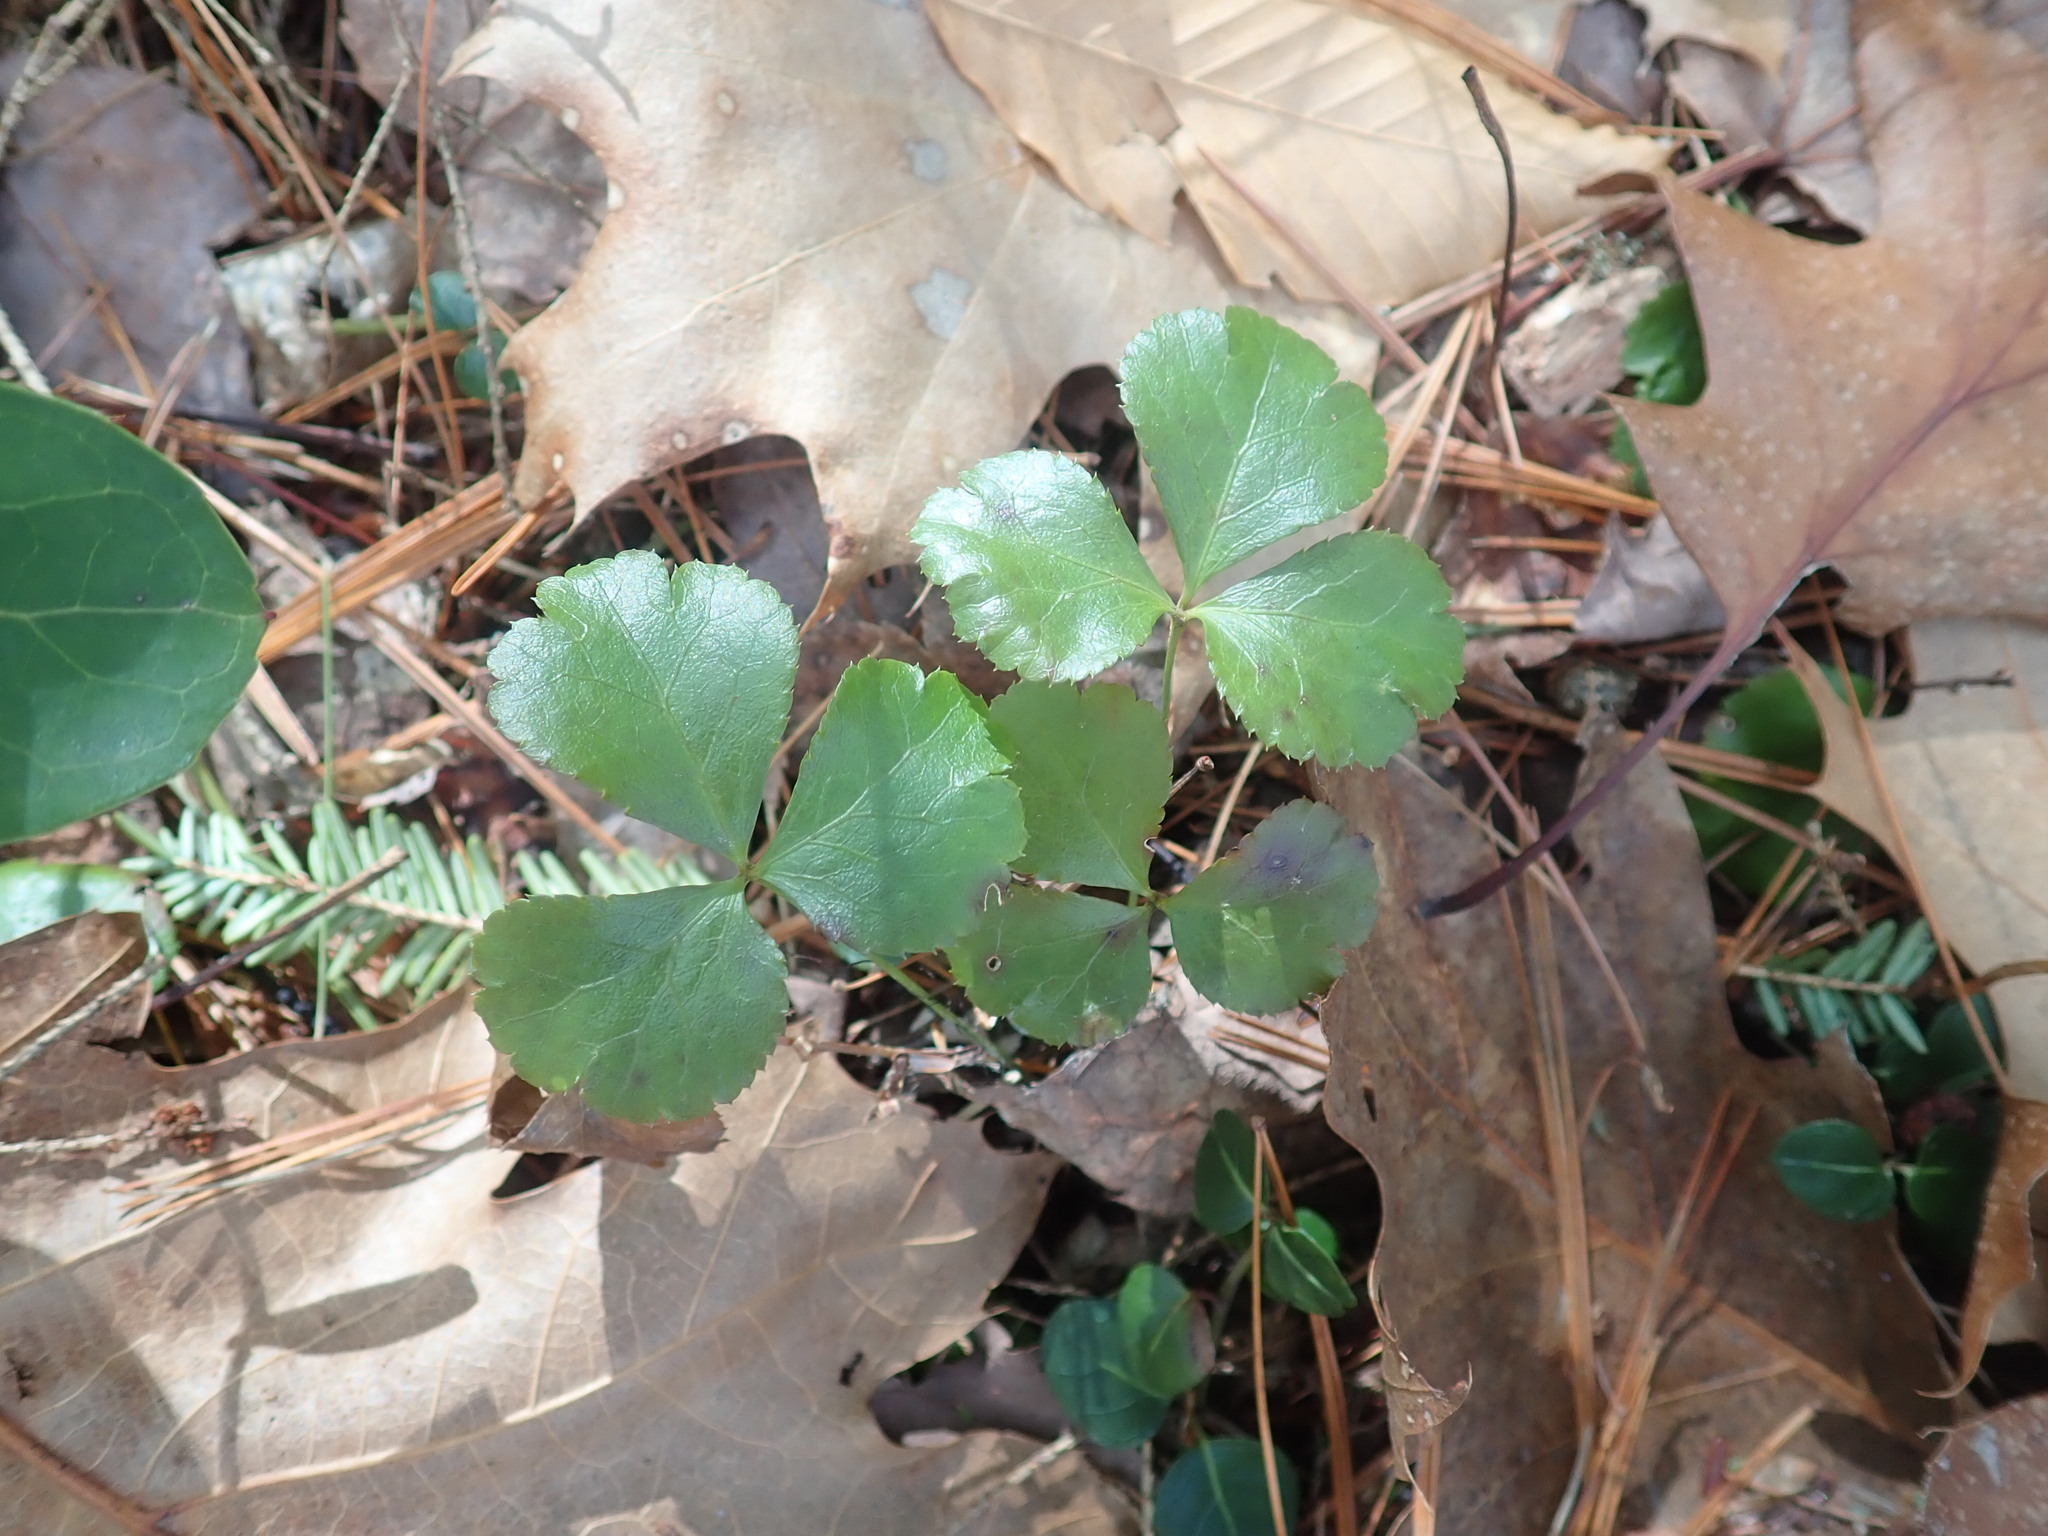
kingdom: Plantae
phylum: Tracheophyta
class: Magnoliopsida
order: Ranunculales
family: Ranunculaceae
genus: Coptis
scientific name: Coptis trifolia
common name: Canker-root
